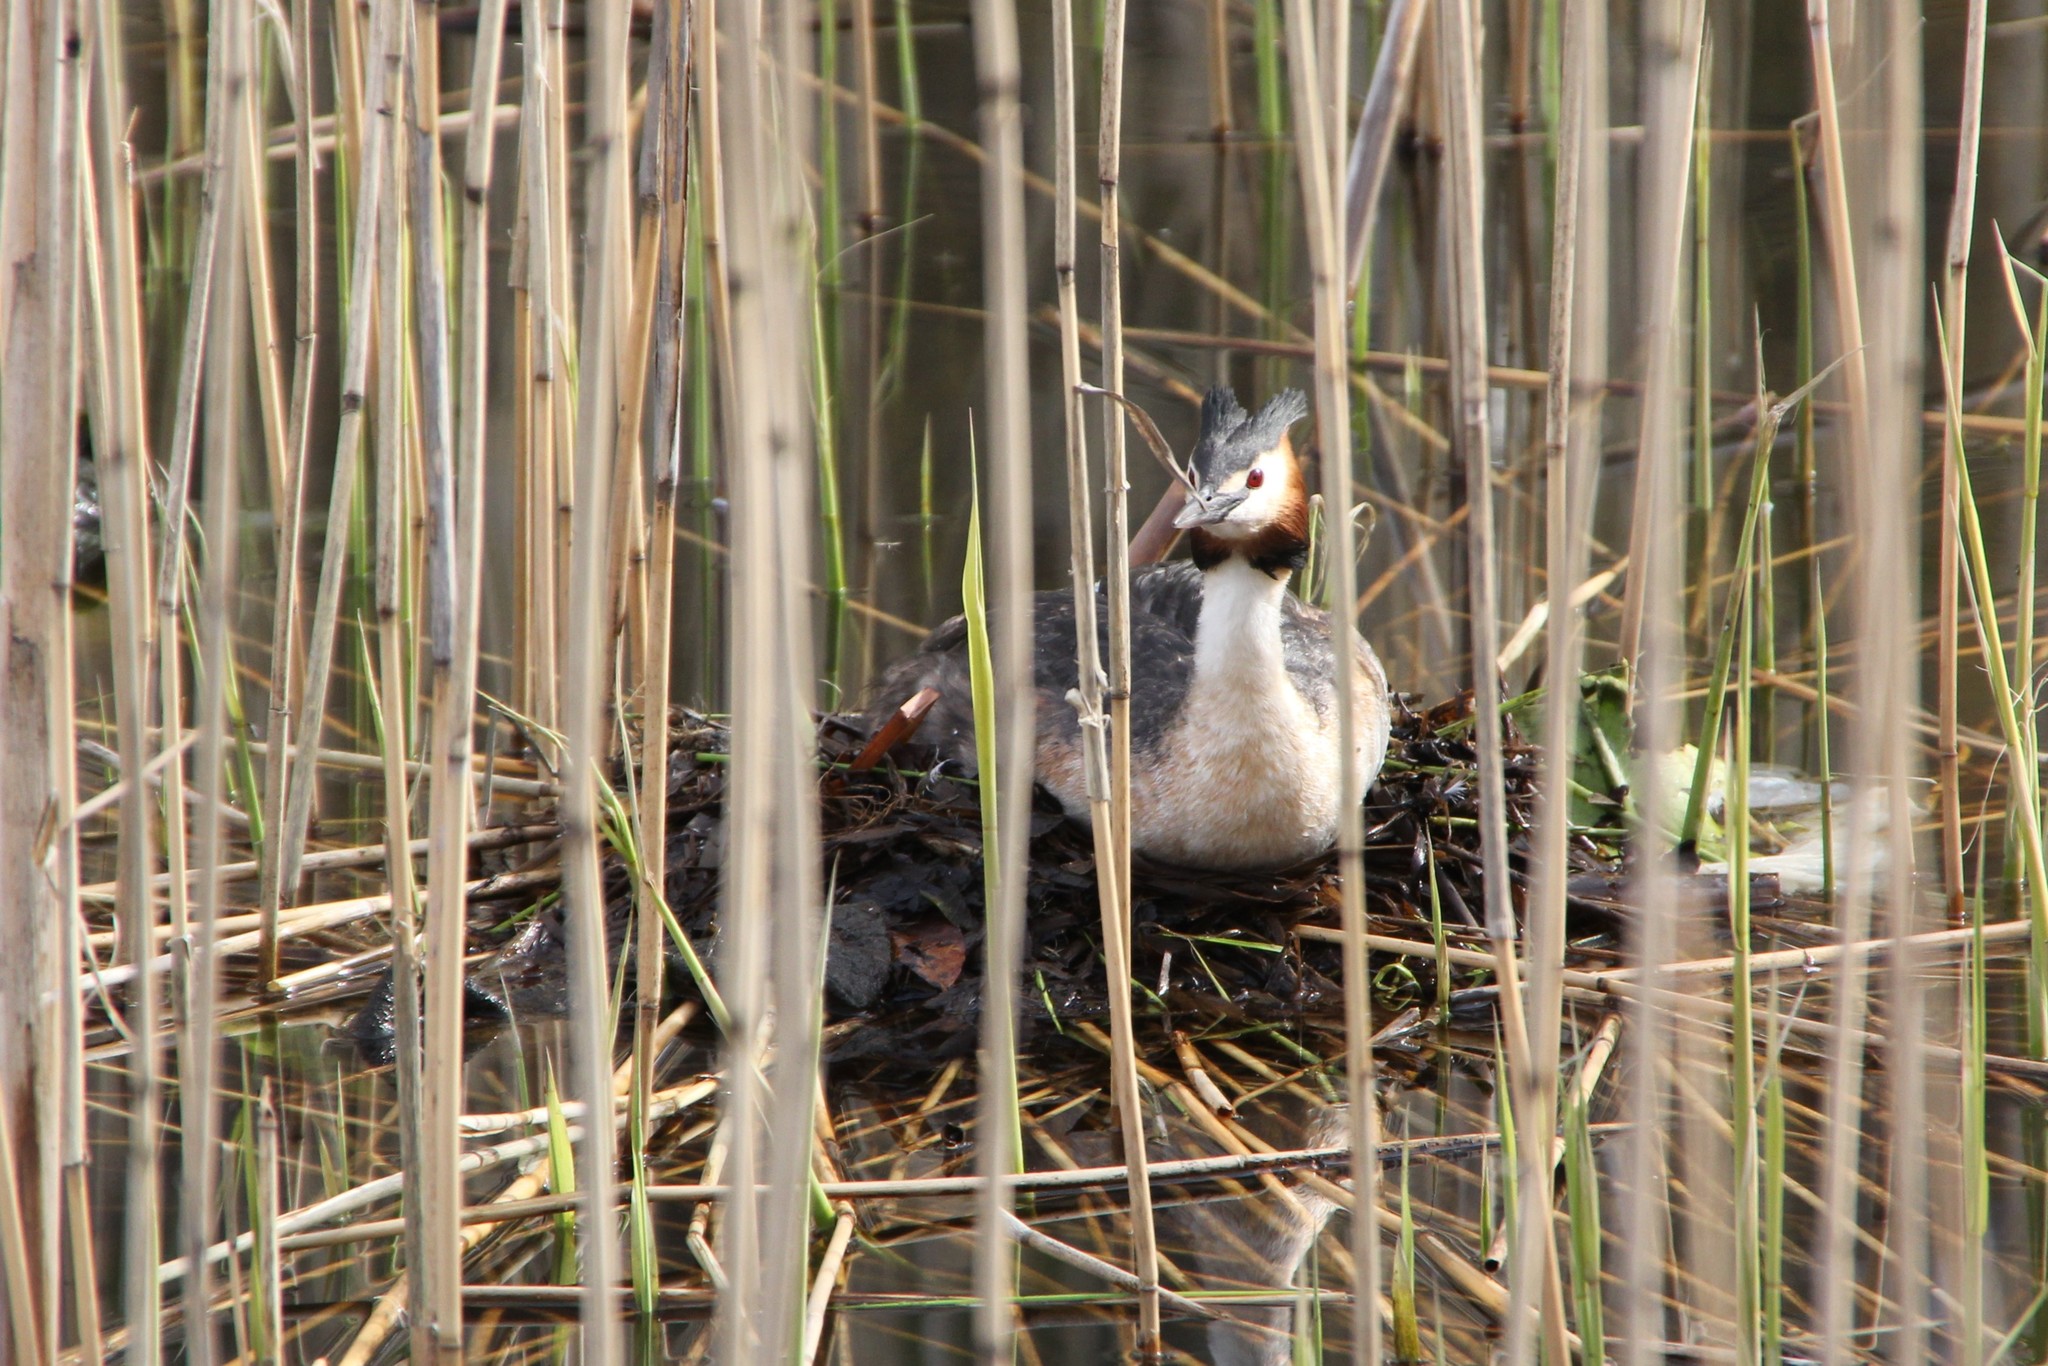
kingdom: Animalia
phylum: Chordata
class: Aves
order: Podicipediformes
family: Podicipedidae
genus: Podiceps
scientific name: Podiceps cristatus
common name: Great crested grebe
